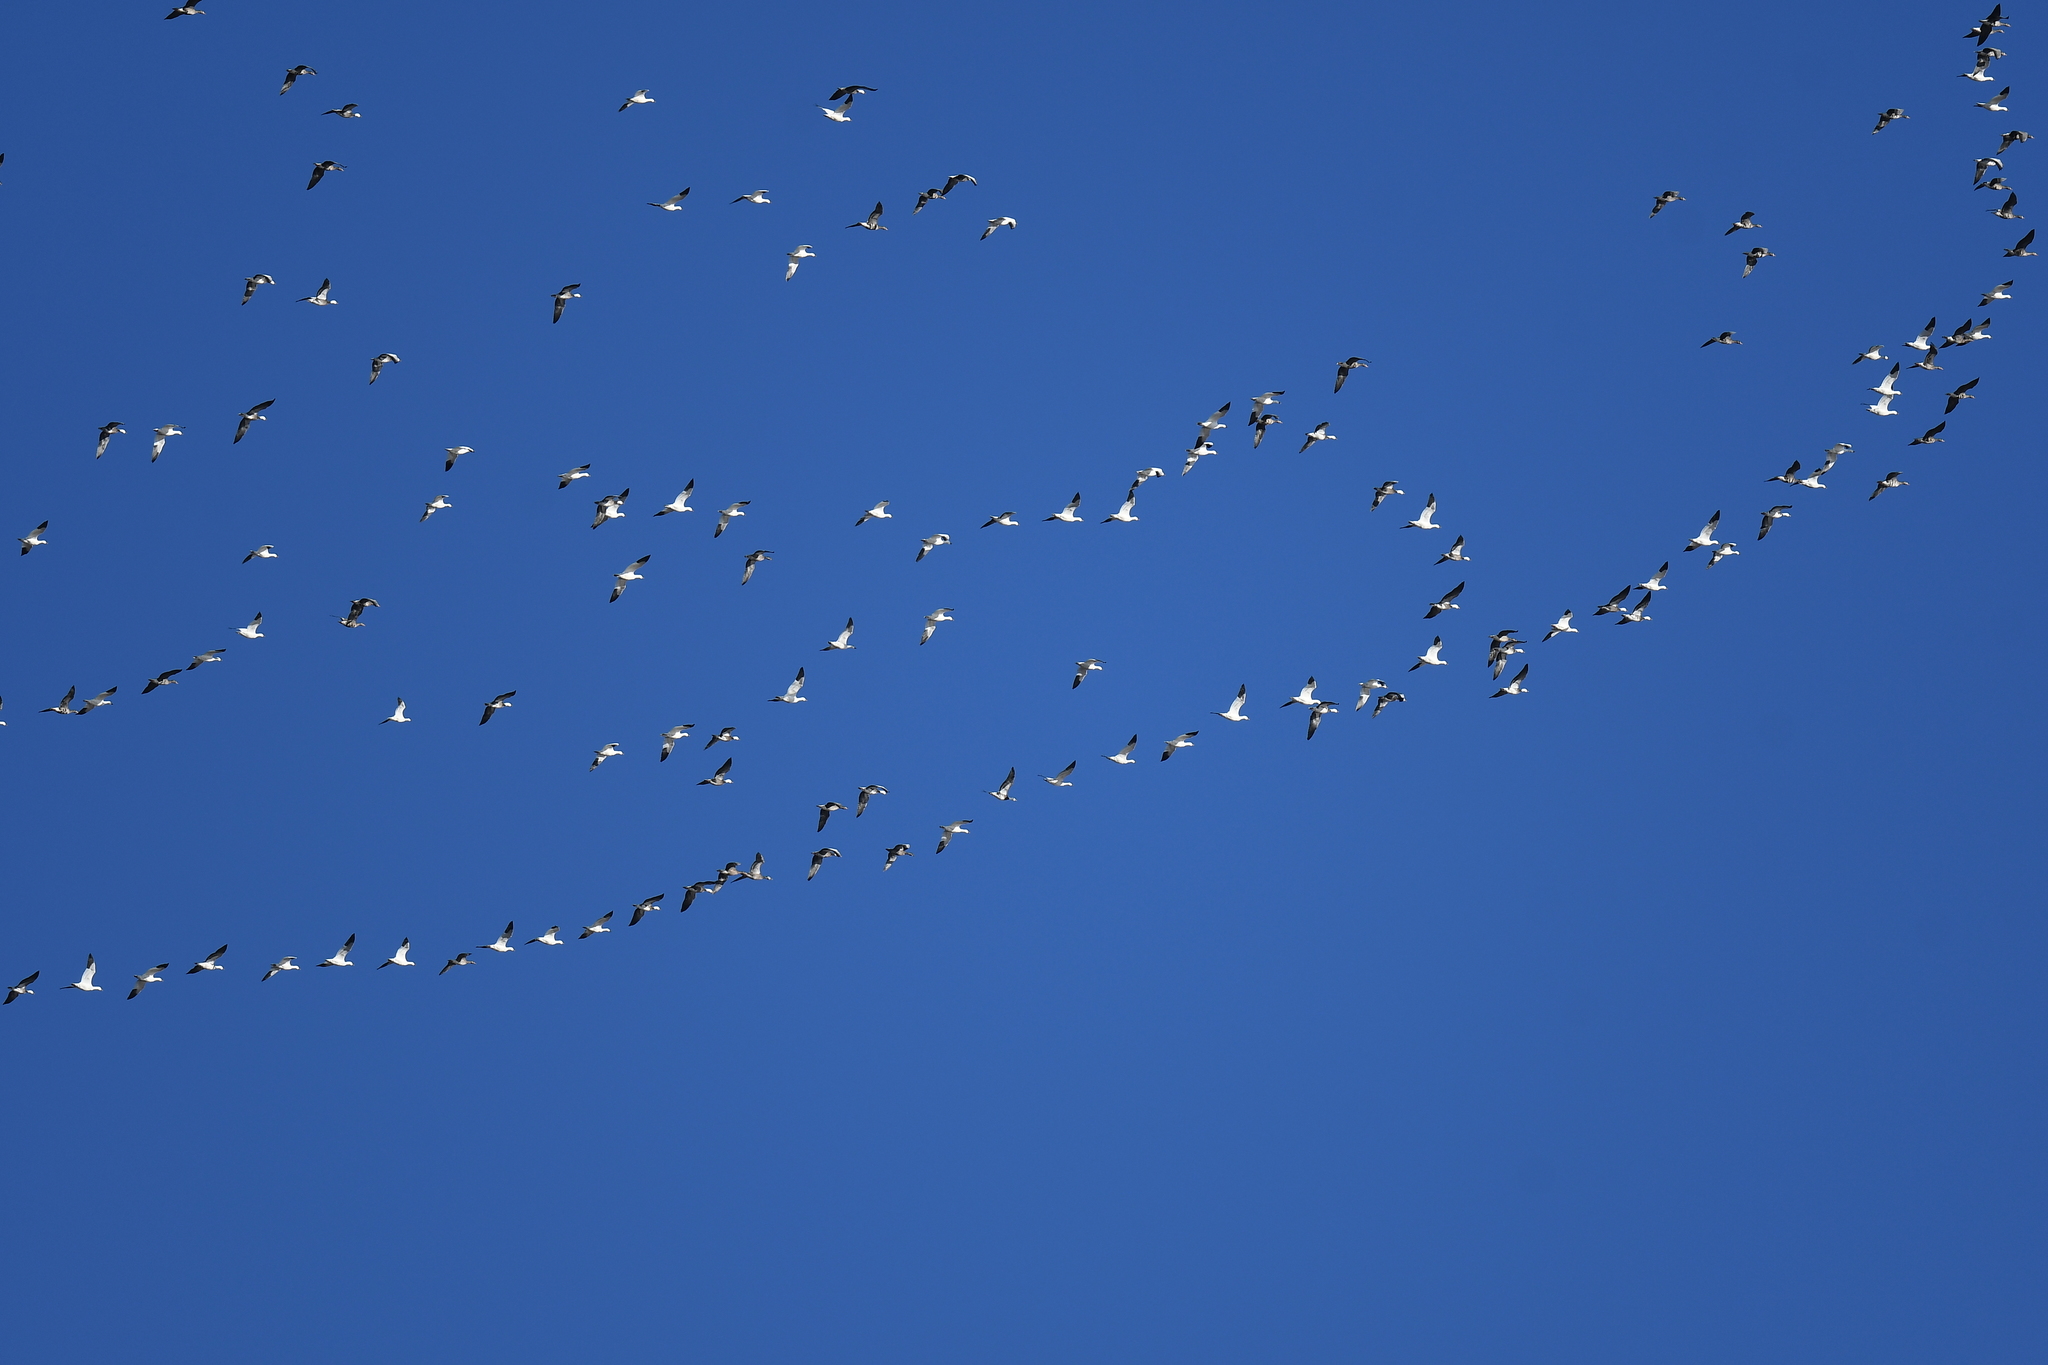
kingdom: Animalia
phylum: Chordata
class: Aves
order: Anseriformes
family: Anatidae
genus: Anser
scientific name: Anser caerulescens
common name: Snow goose
